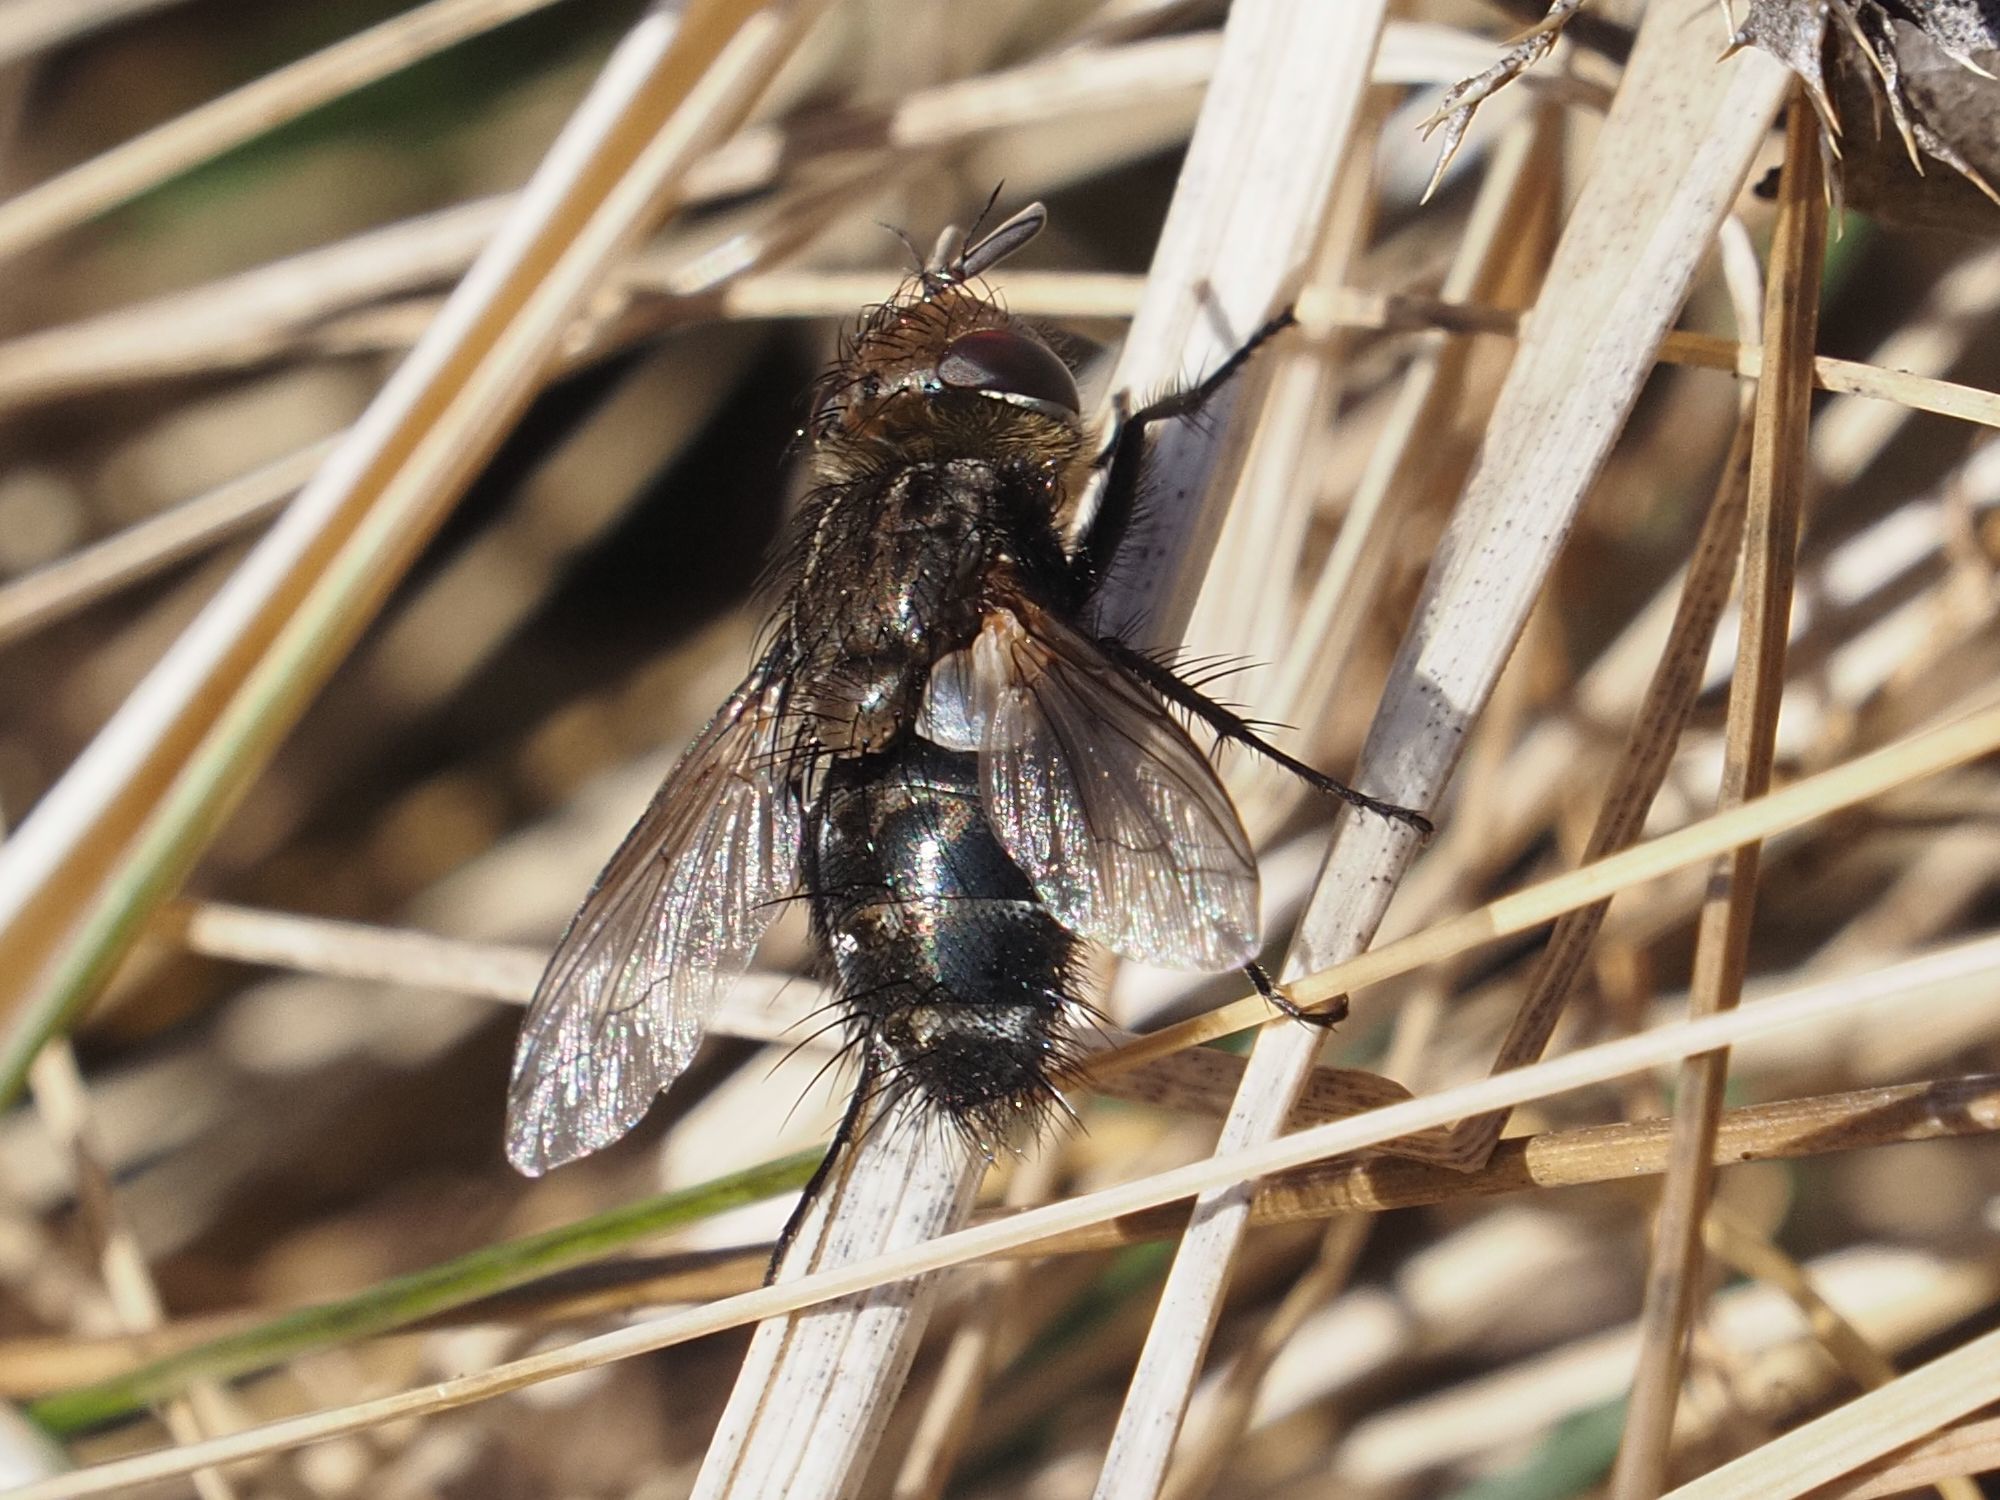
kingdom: Animalia
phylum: Arthropoda
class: Insecta
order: Diptera
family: Tachinidae
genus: Gonia
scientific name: Gonia picea
